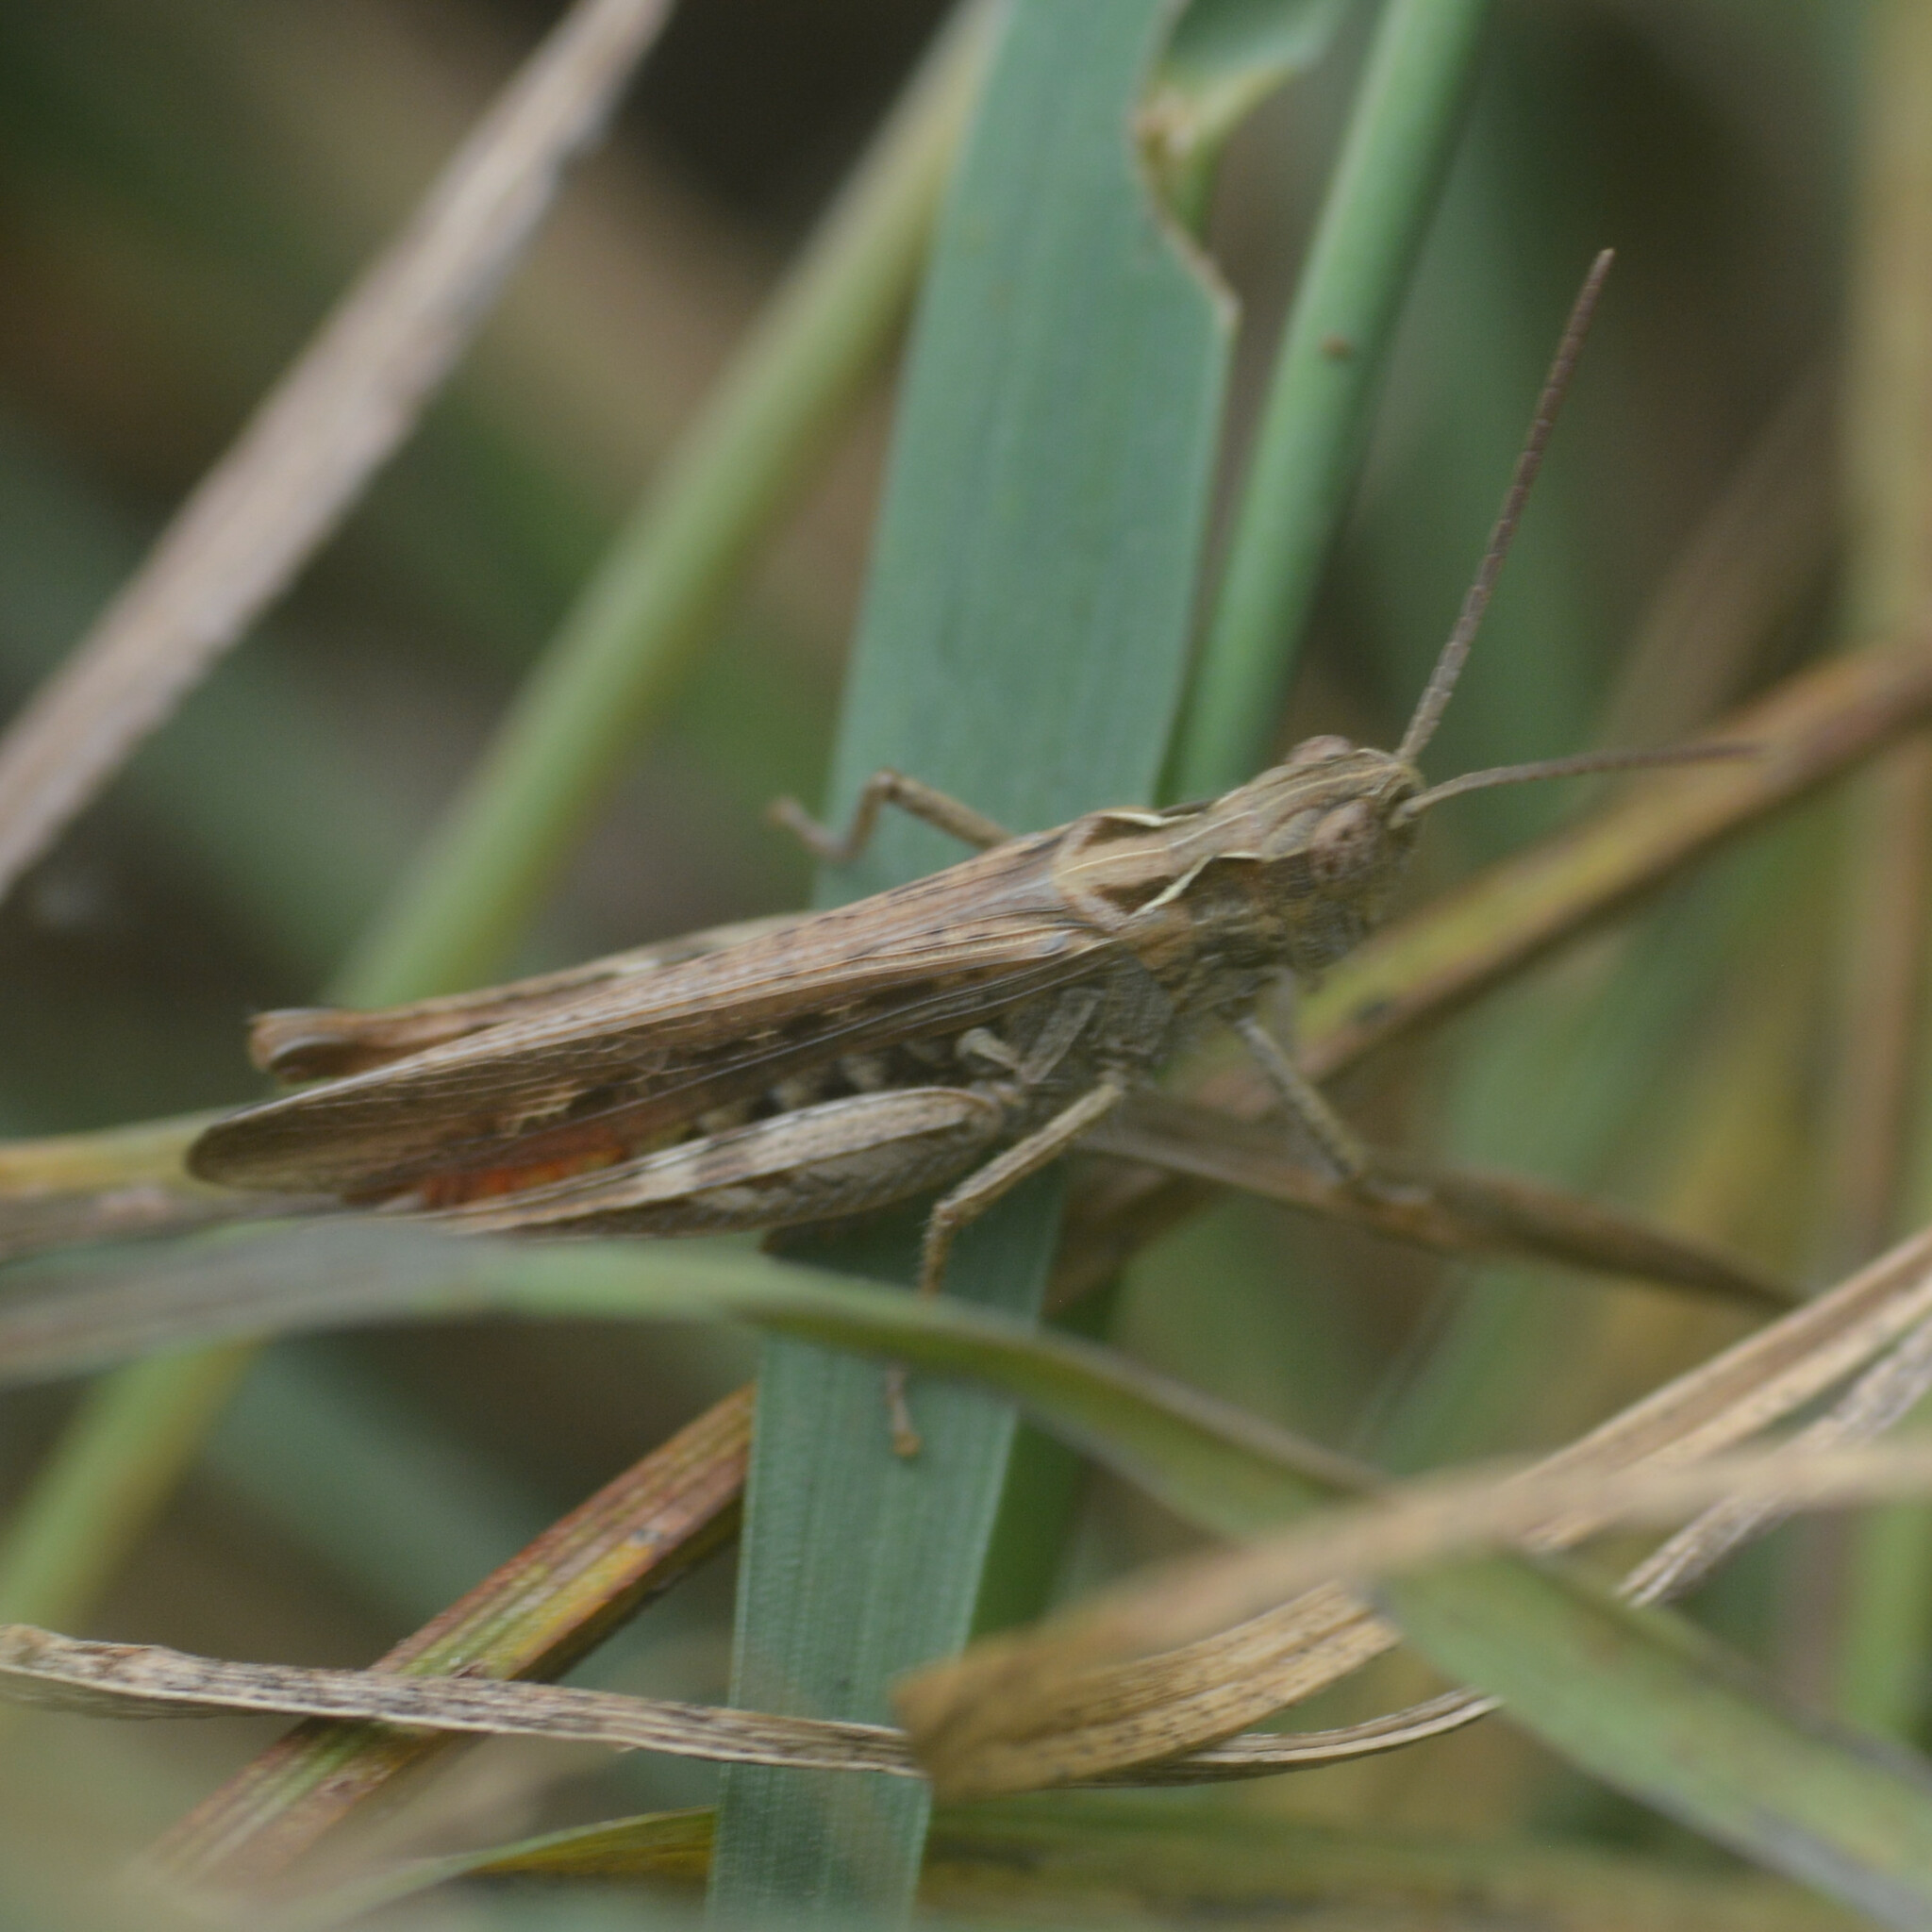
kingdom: Animalia
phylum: Arthropoda
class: Insecta
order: Orthoptera
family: Acrididae
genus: Chorthippus
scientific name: Chorthippus brunneus
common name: Field grasshopper
